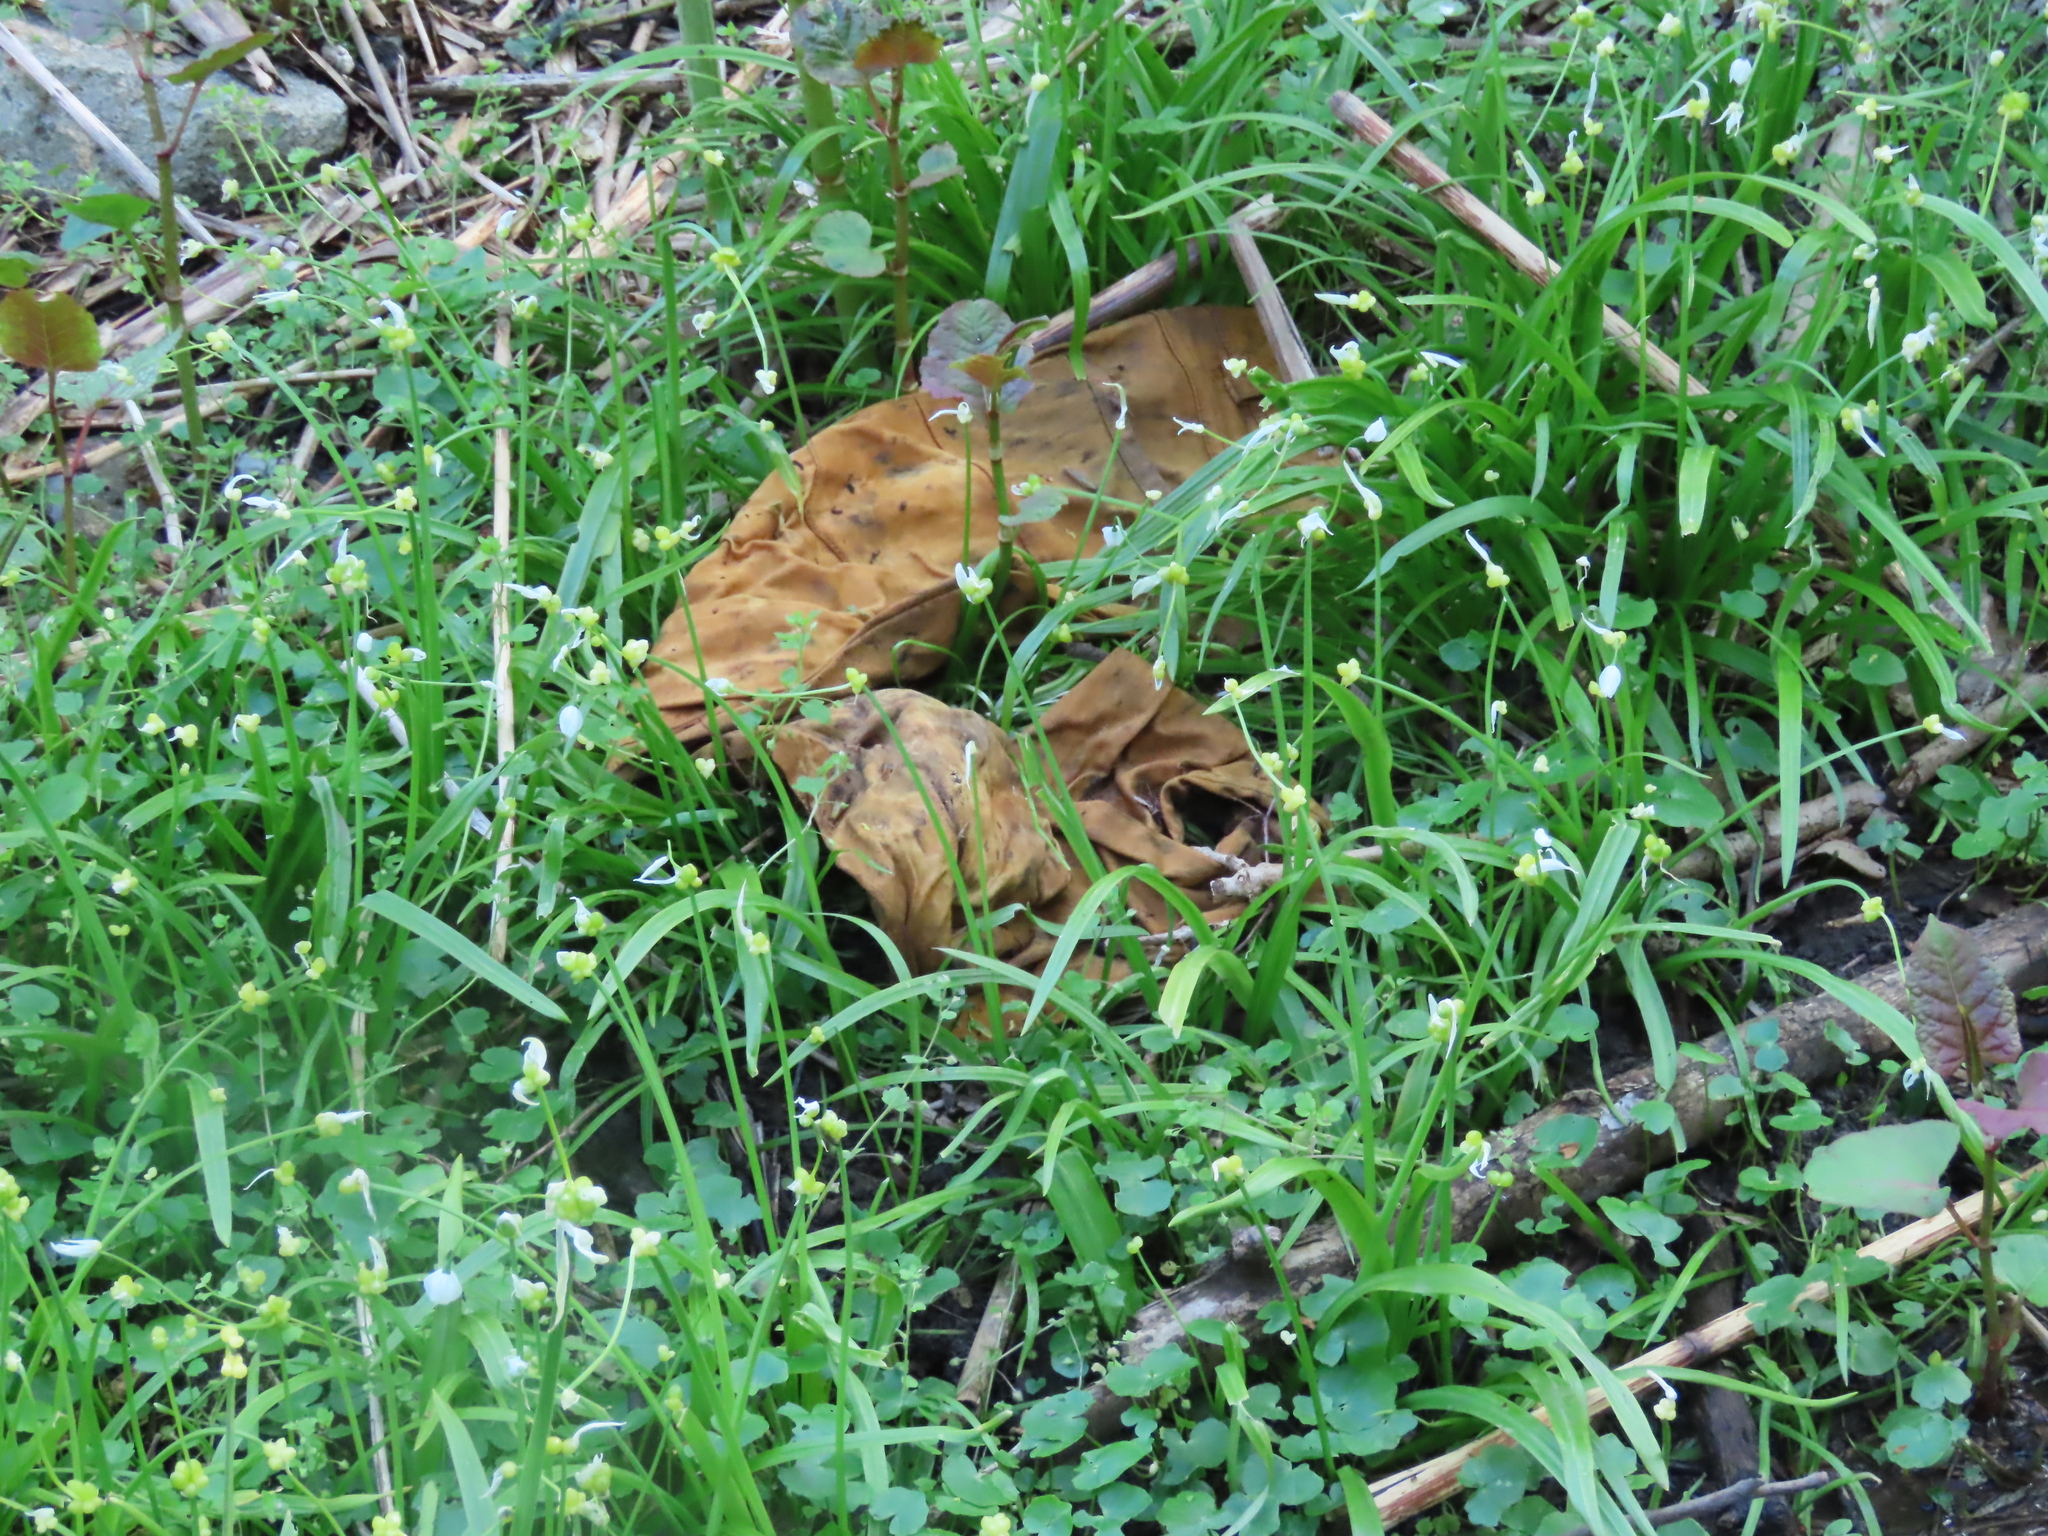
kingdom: Plantae
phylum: Tracheophyta
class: Liliopsida
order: Asparagales
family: Amaryllidaceae
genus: Allium
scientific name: Allium paradoxum
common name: Few-flowered garlic
